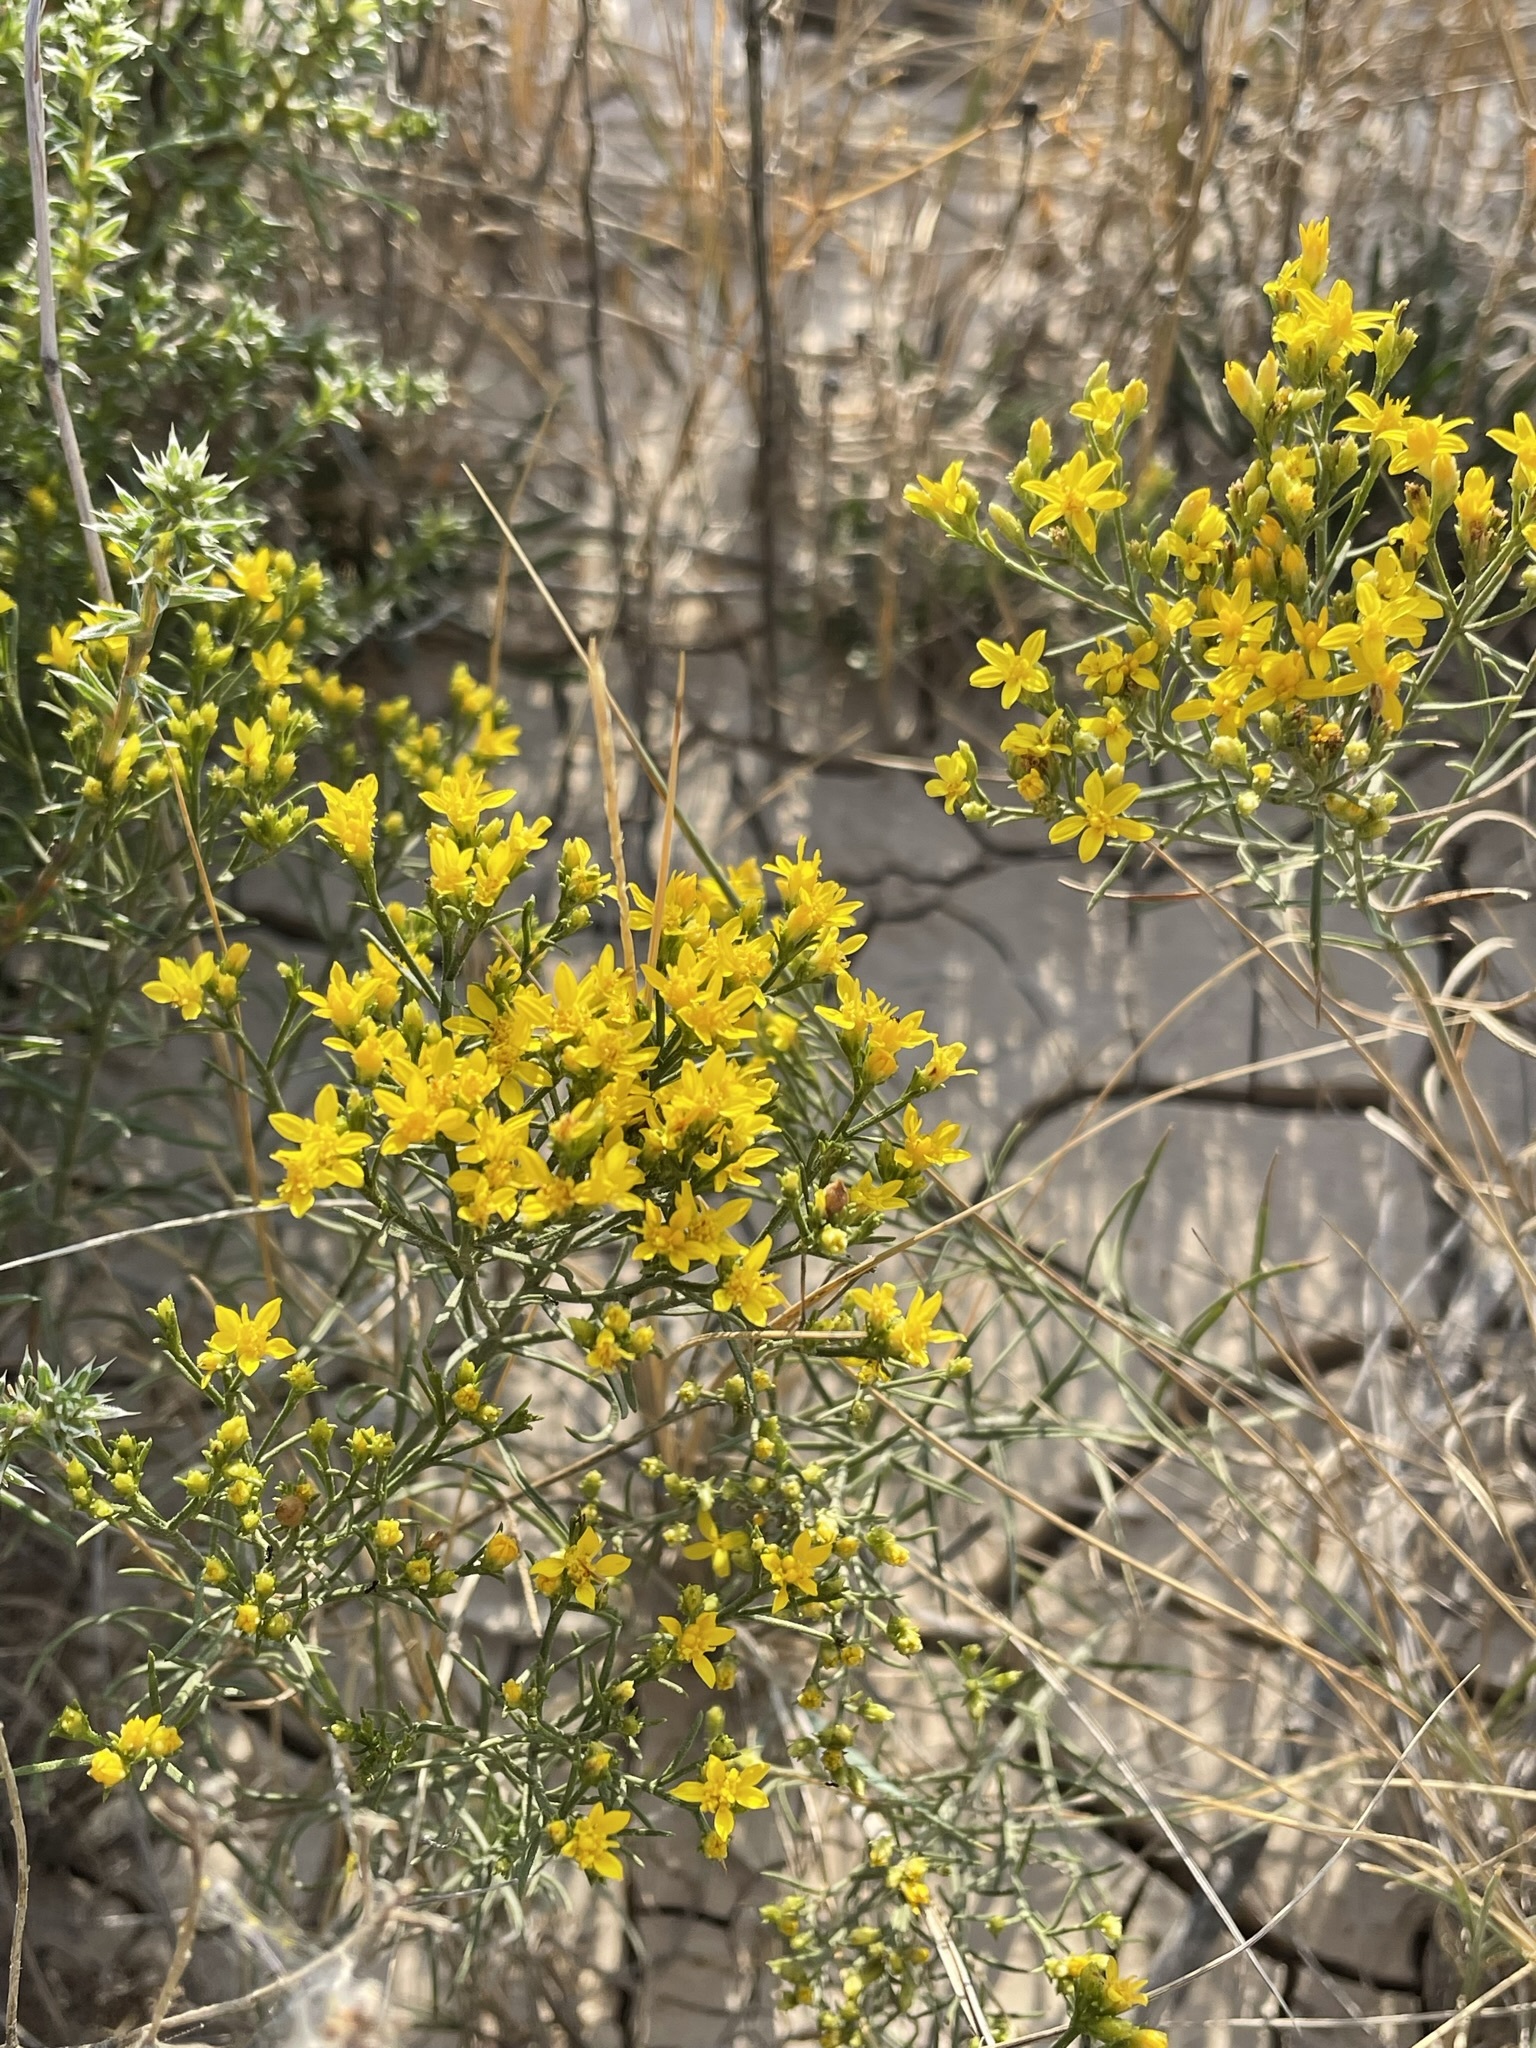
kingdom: Plantae
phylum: Tracheophyta
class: Magnoliopsida
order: Asterales
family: Asteraceae
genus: Gutierrezia
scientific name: Gutierrezia sarothrae
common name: Broom snakeweed
